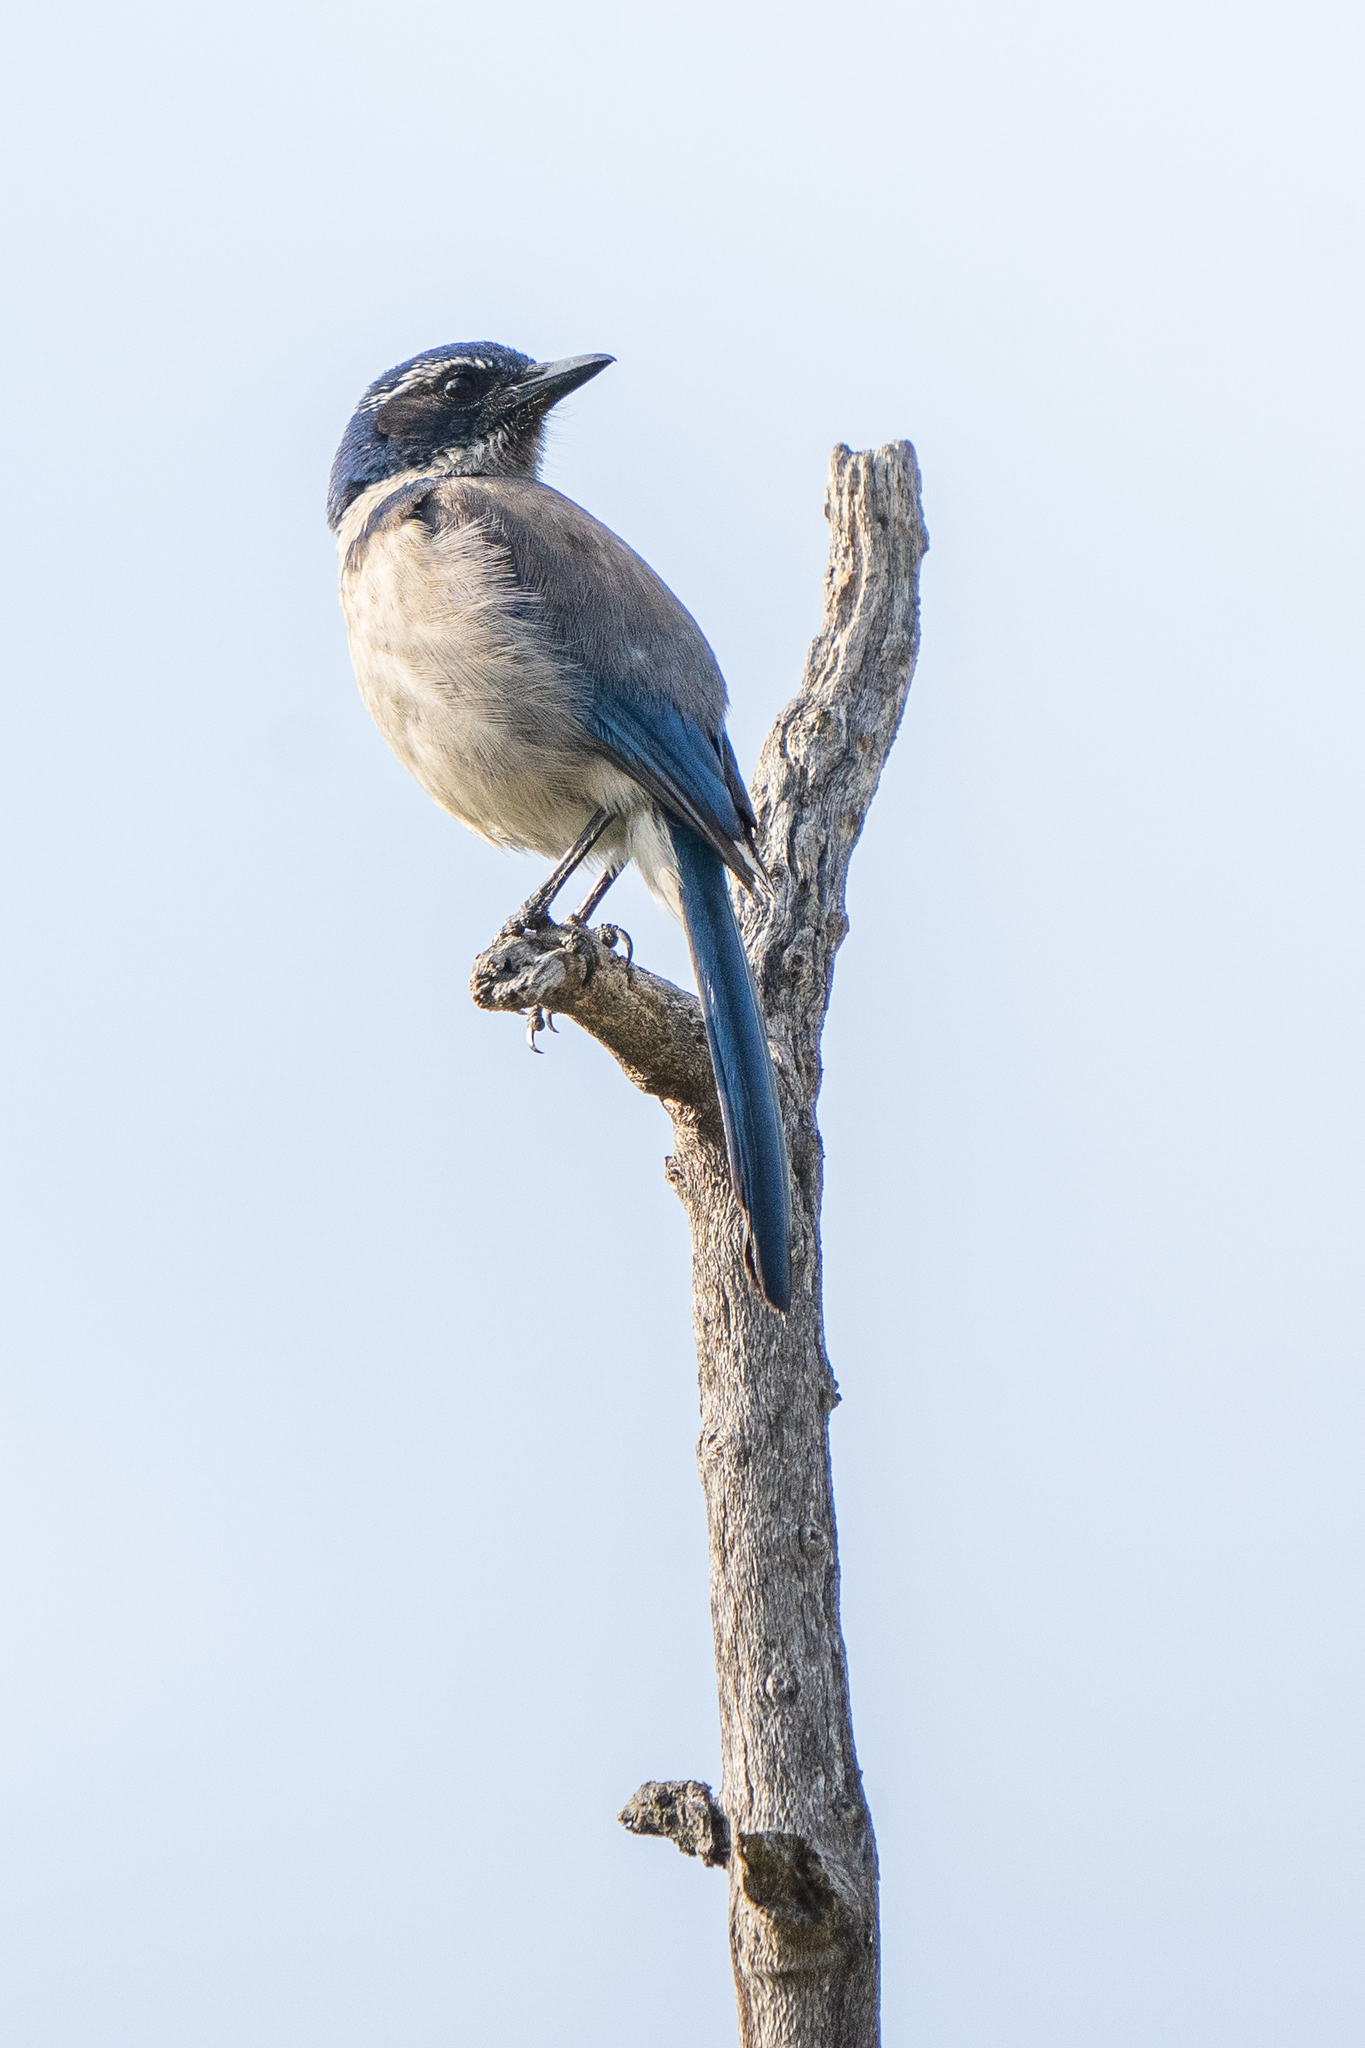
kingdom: Animalia
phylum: Chordata
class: Aves
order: Passeriformes
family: Corvidae
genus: Aphelocoma
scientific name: Aphelocoma californica
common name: California scrub-jay
